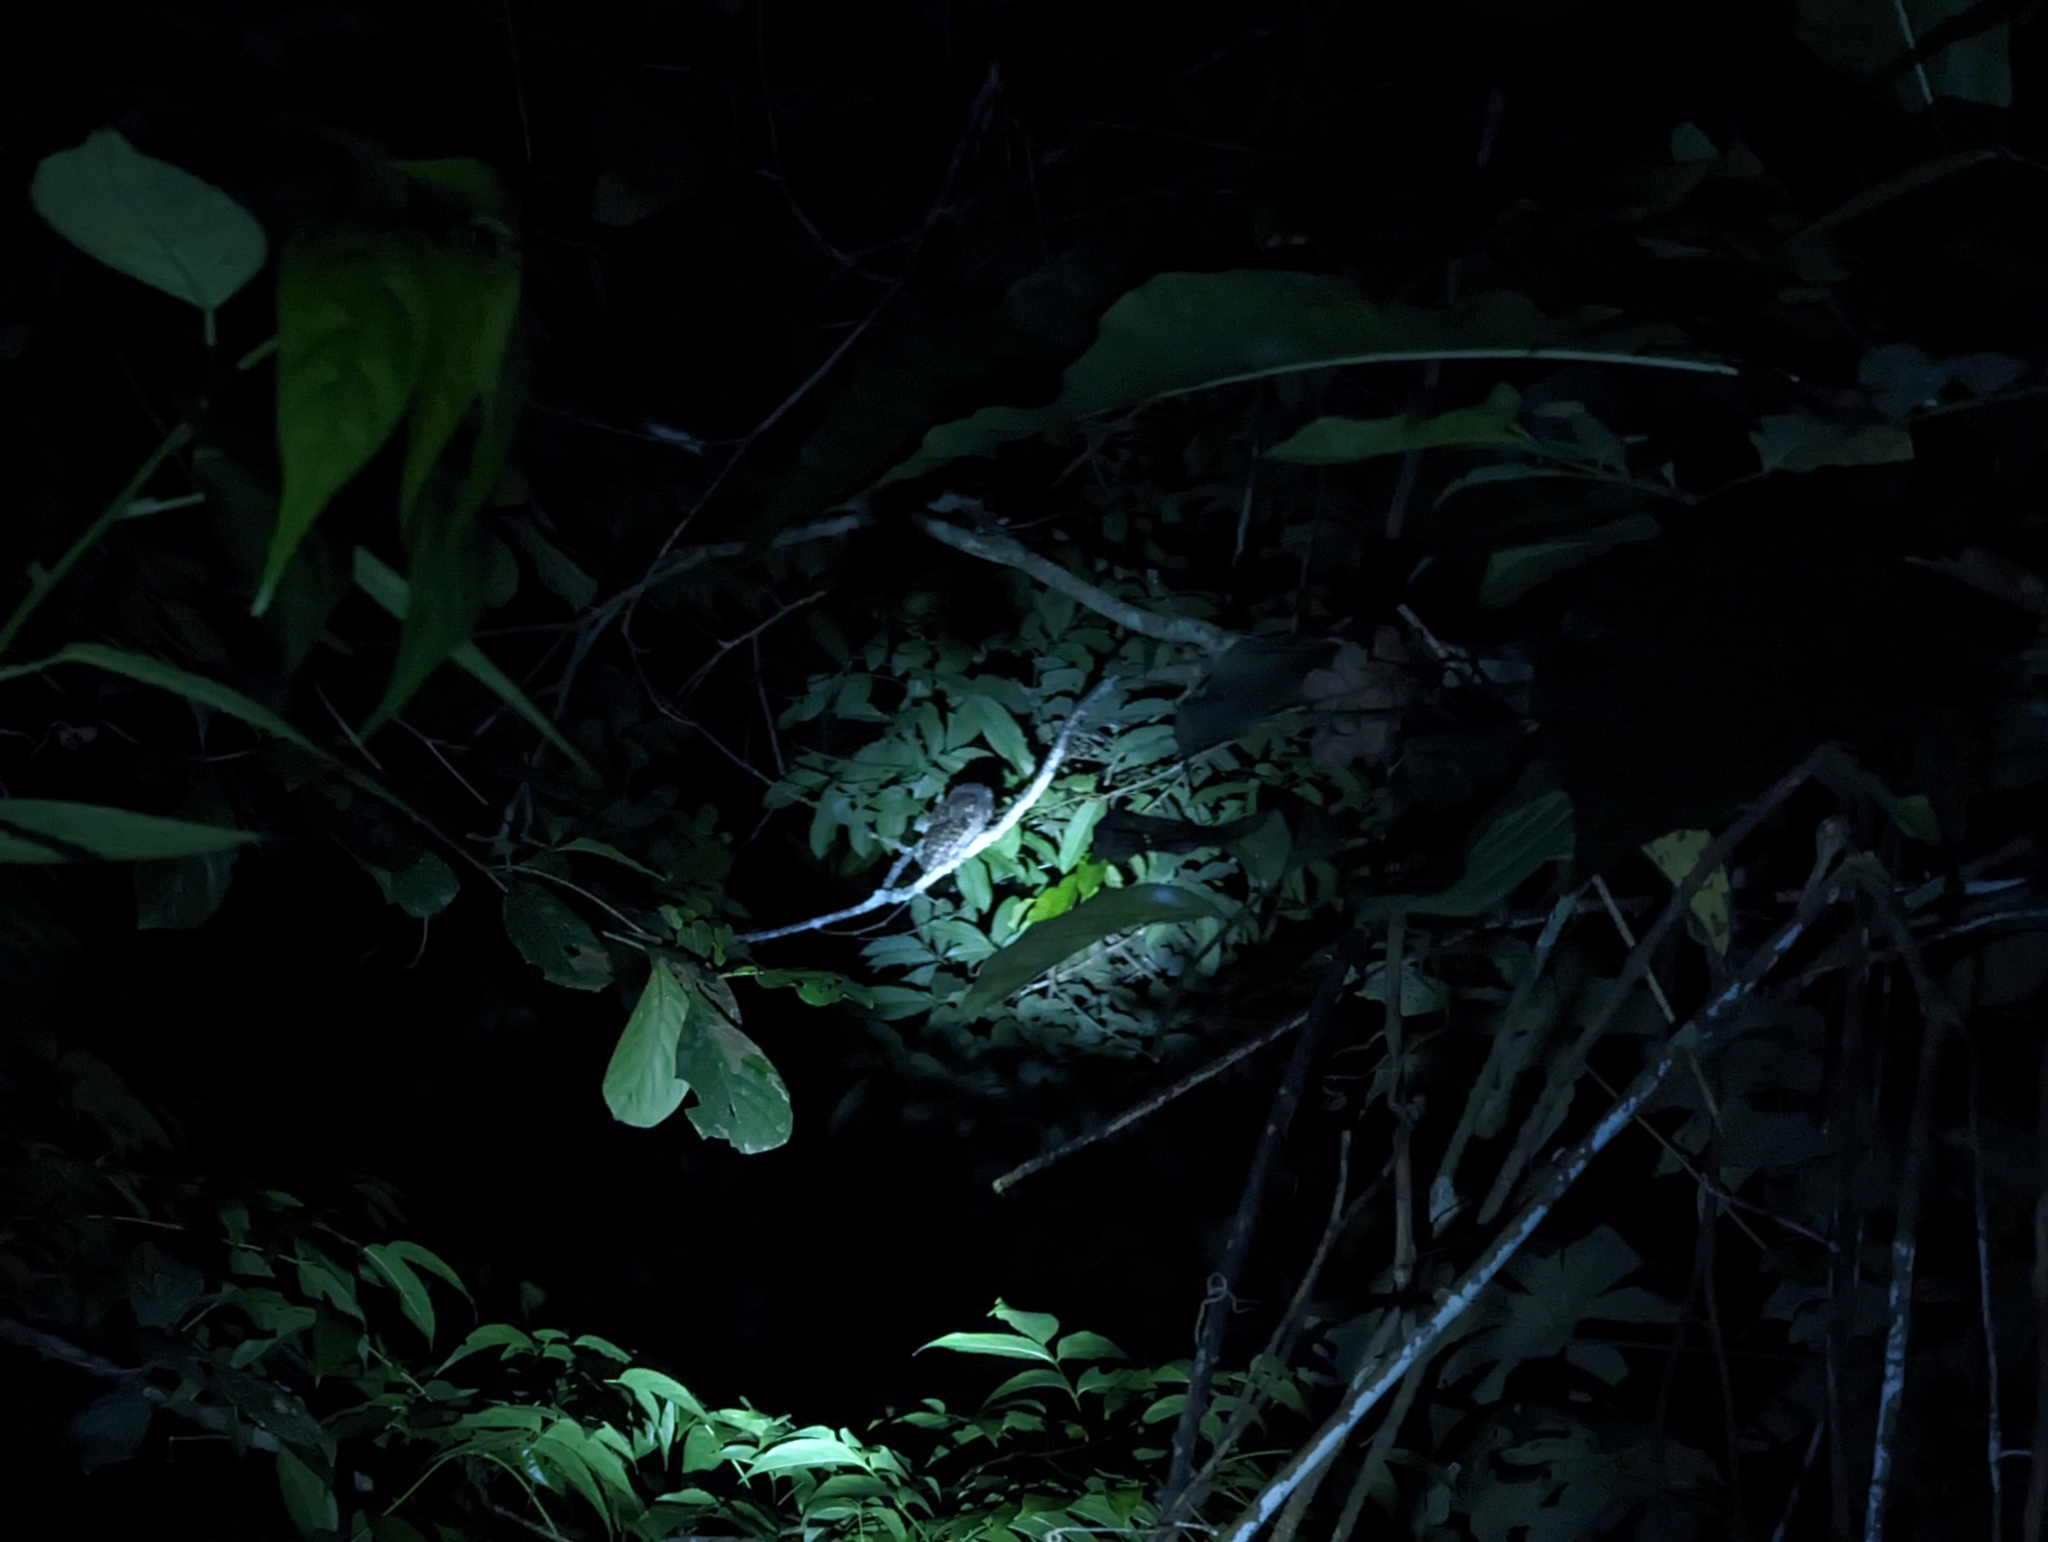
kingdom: Animalia
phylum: Chordata
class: Aves
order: Strigiformes
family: Strigidae
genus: Megascops
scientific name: Megascops
